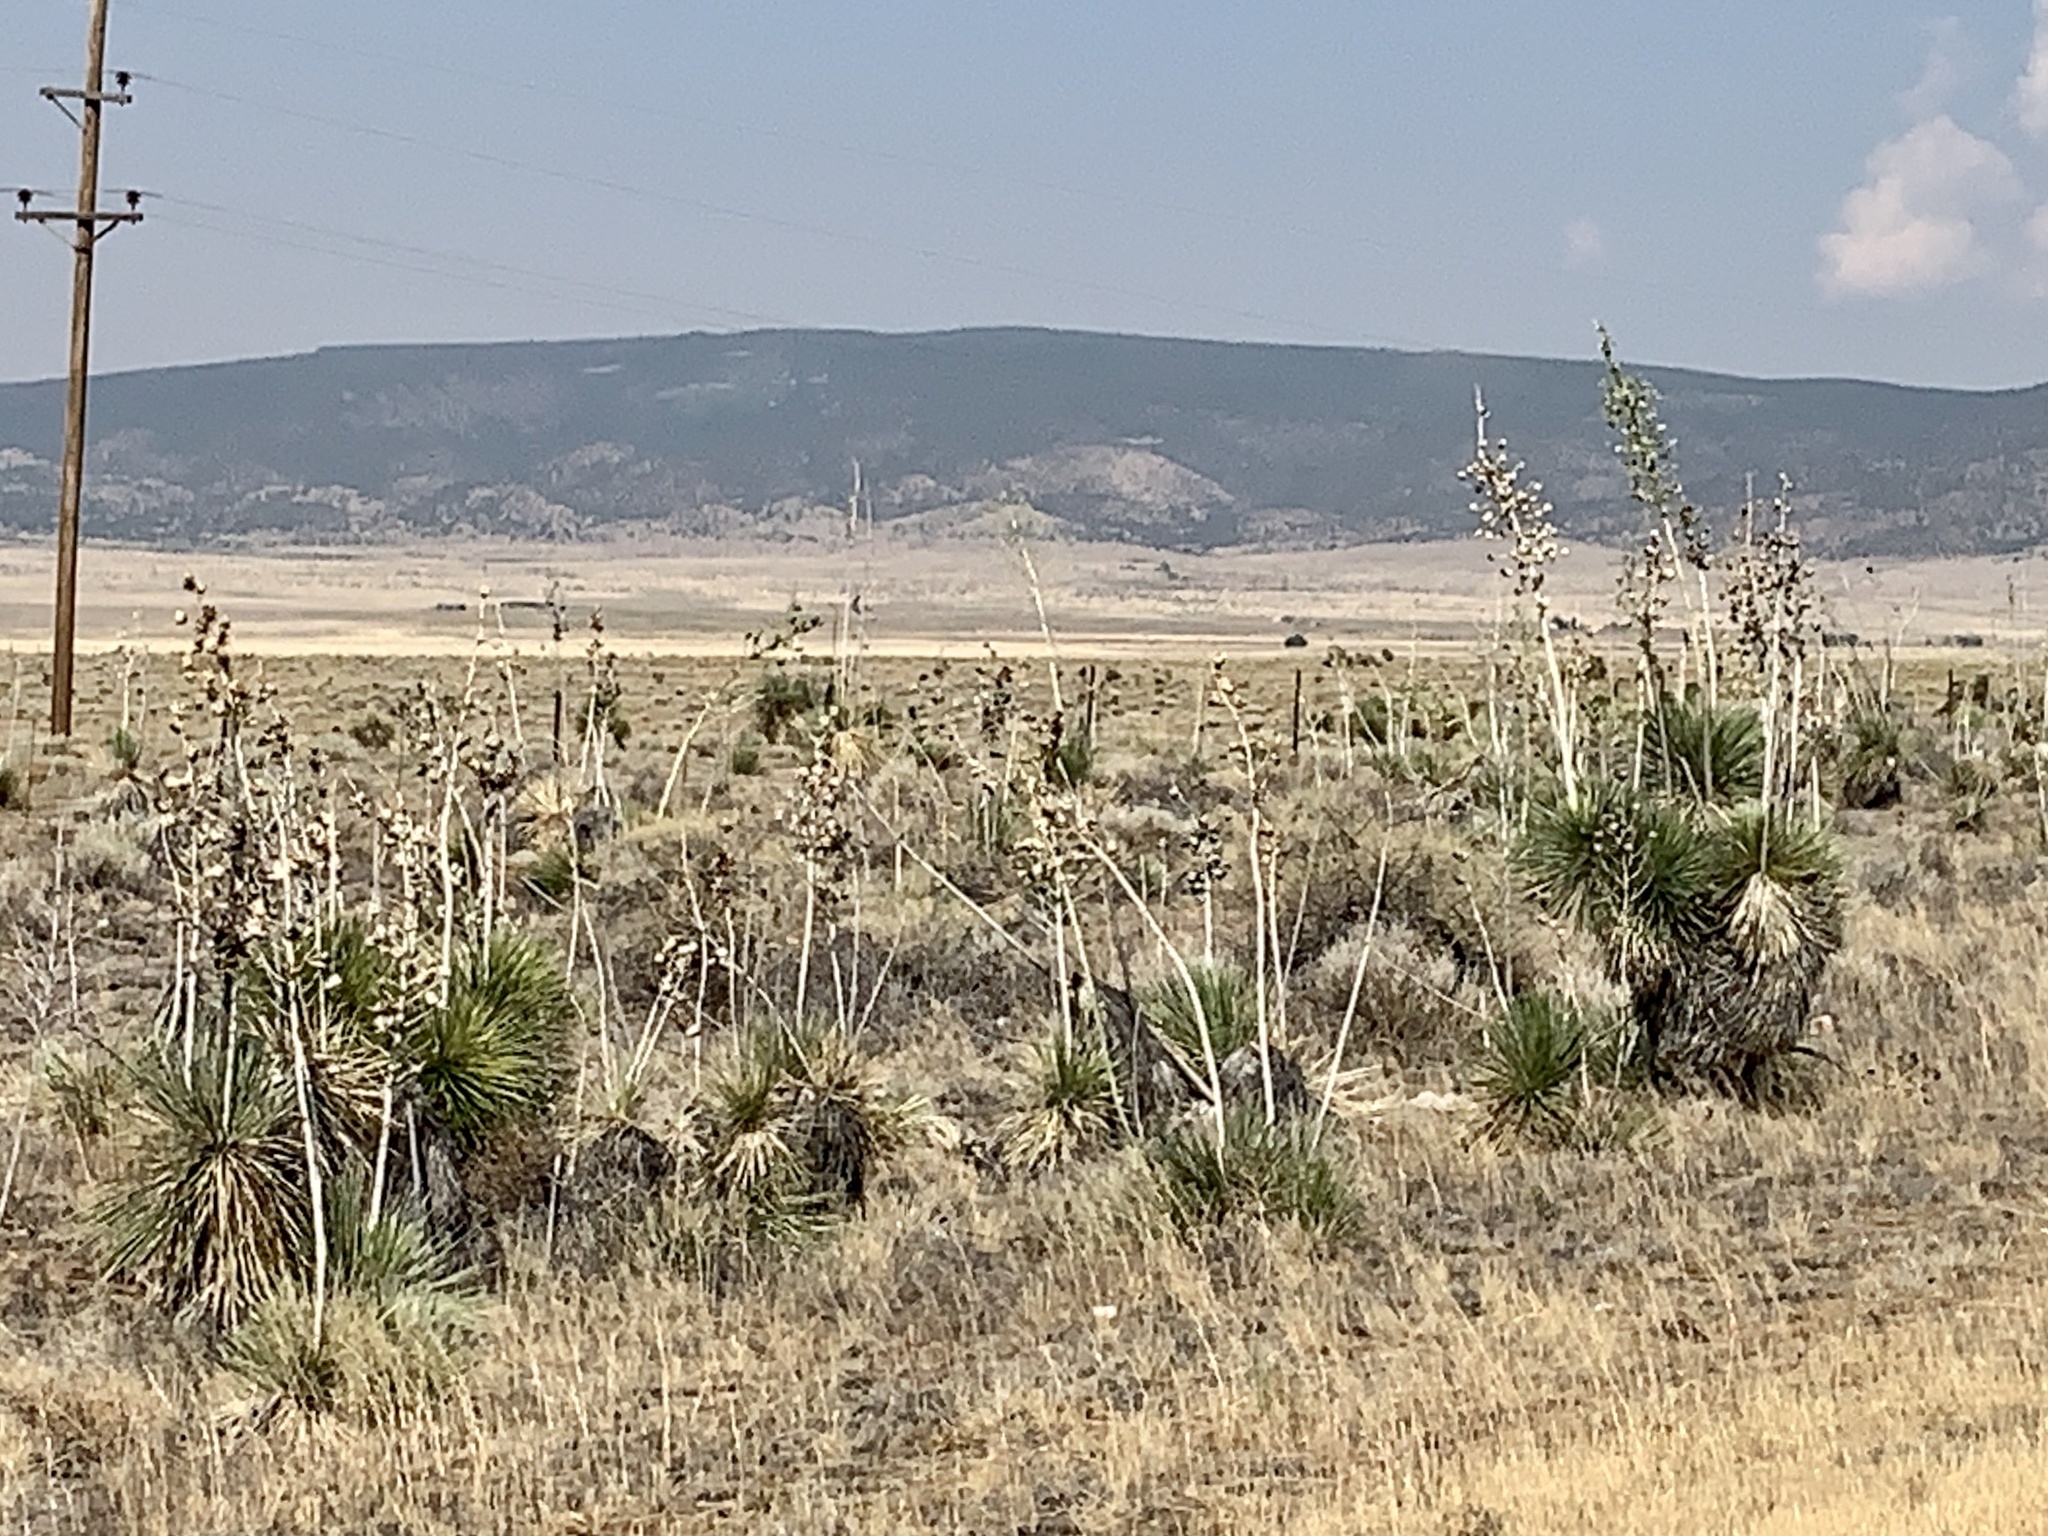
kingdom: Plantae
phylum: Tracheophyta
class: Liliopsida
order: Asparagales
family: Asparagaceae
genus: Yucca
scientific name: Yucca elata
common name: Palmella
